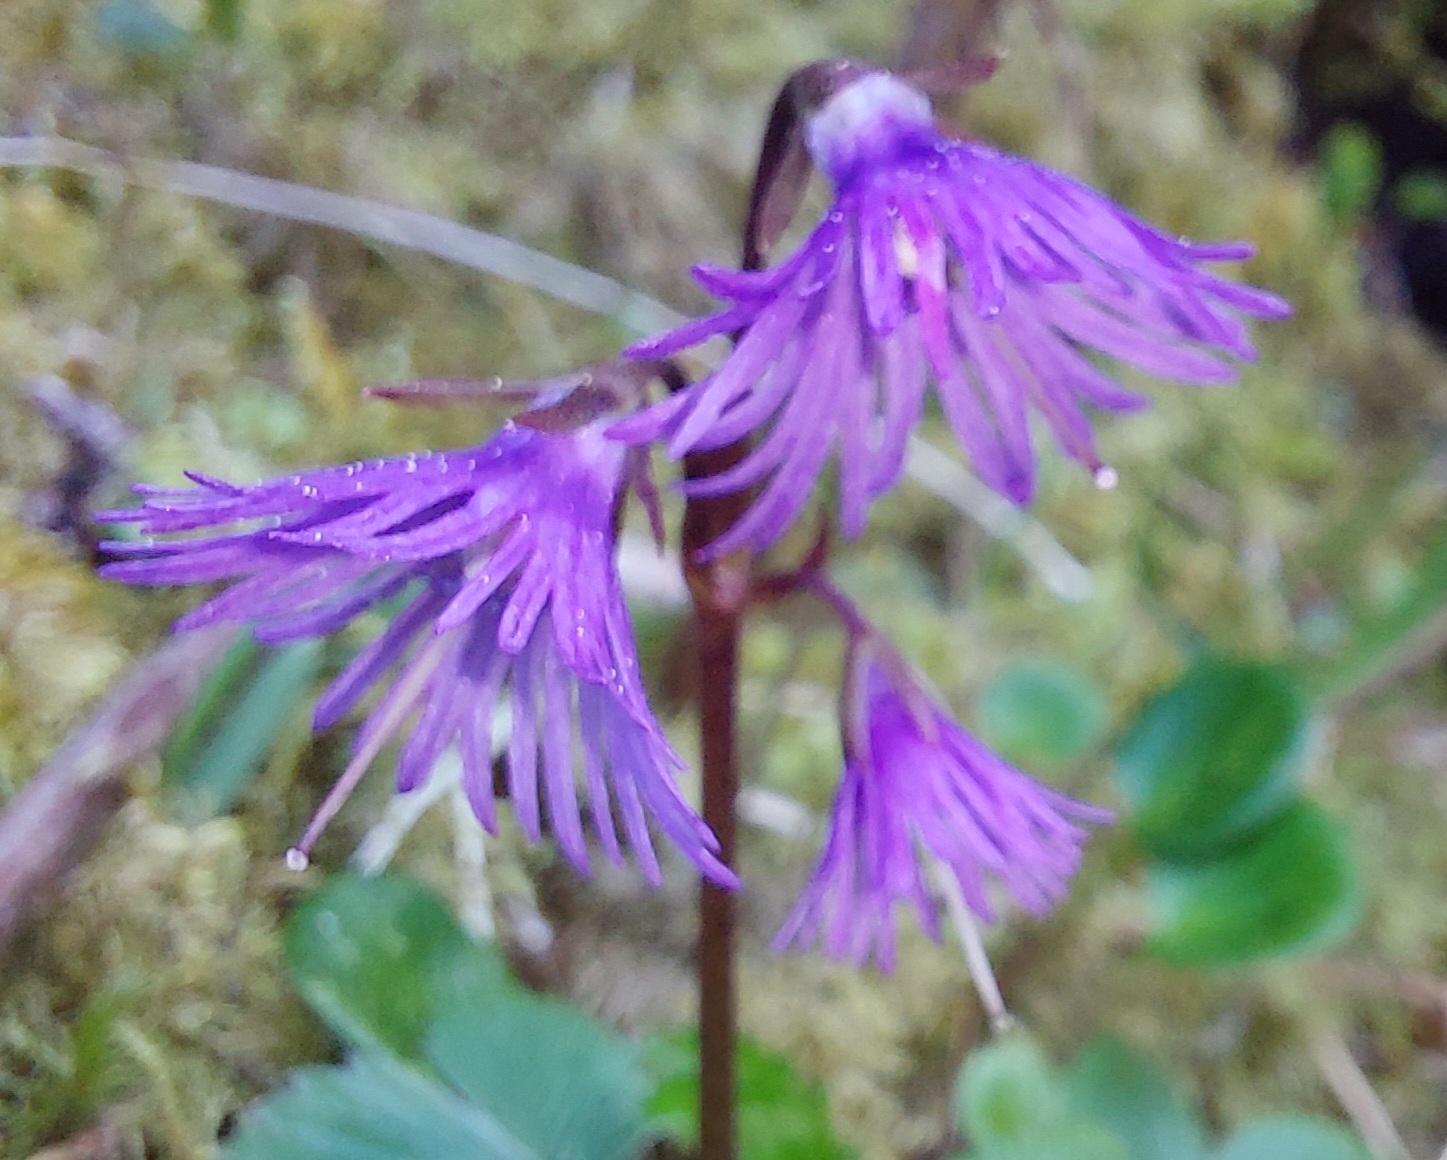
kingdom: Plantae
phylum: Tracheophyta
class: Magnoliopsida
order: Ericales
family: Primulaceae
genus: Soldanella
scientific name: Soldanella alpina
